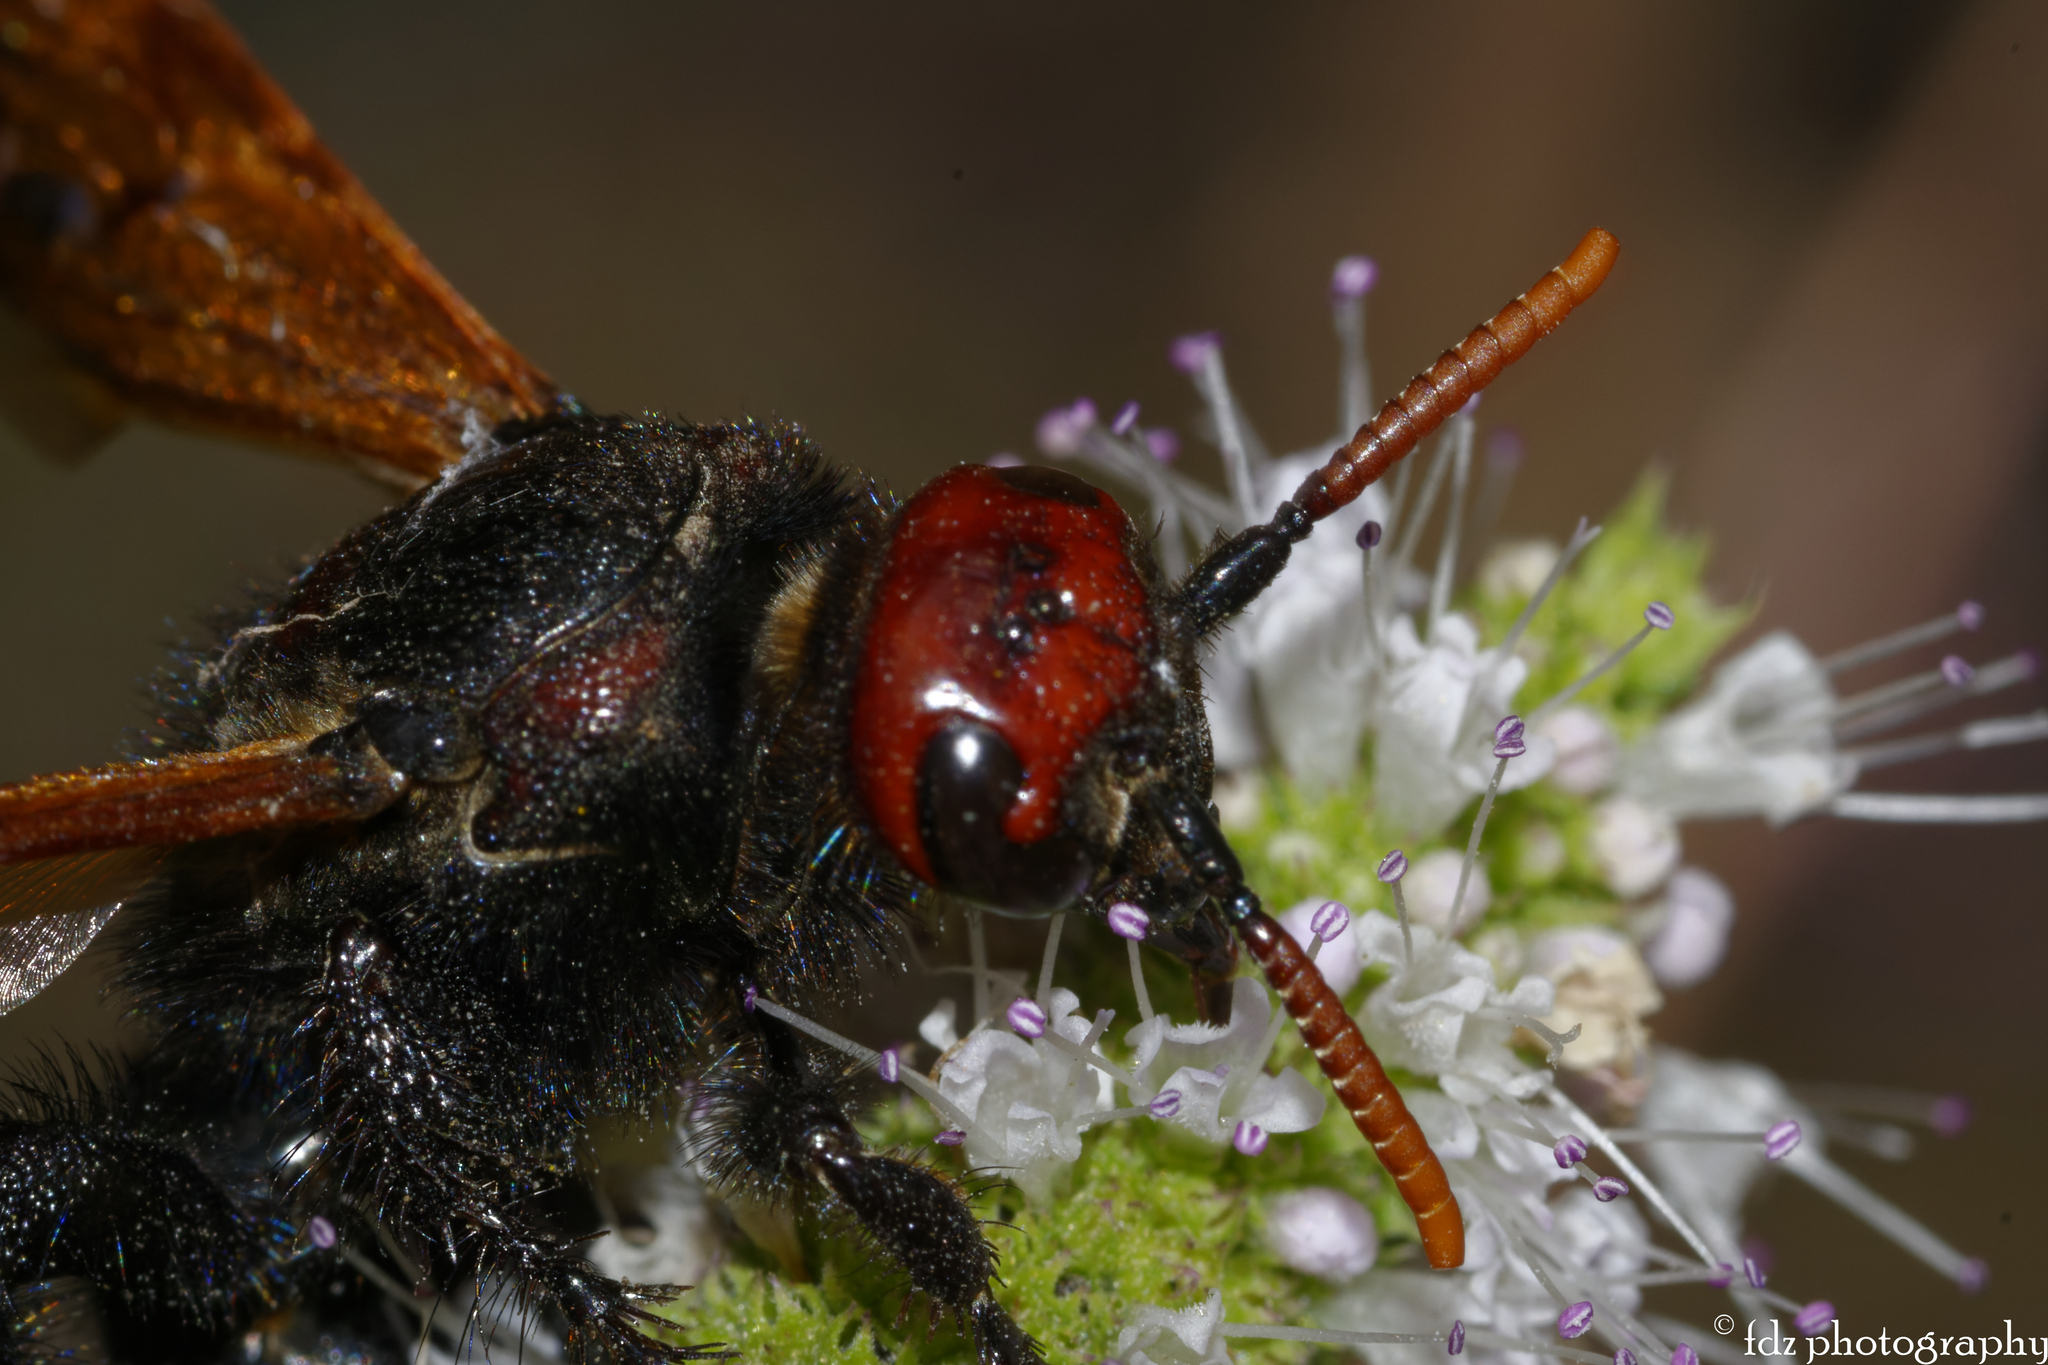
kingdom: Animalia
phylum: Arthropoda
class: Insecta
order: Hymenoptera
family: Scoliidae
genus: Scolia
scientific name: Scolia erythrocephala
